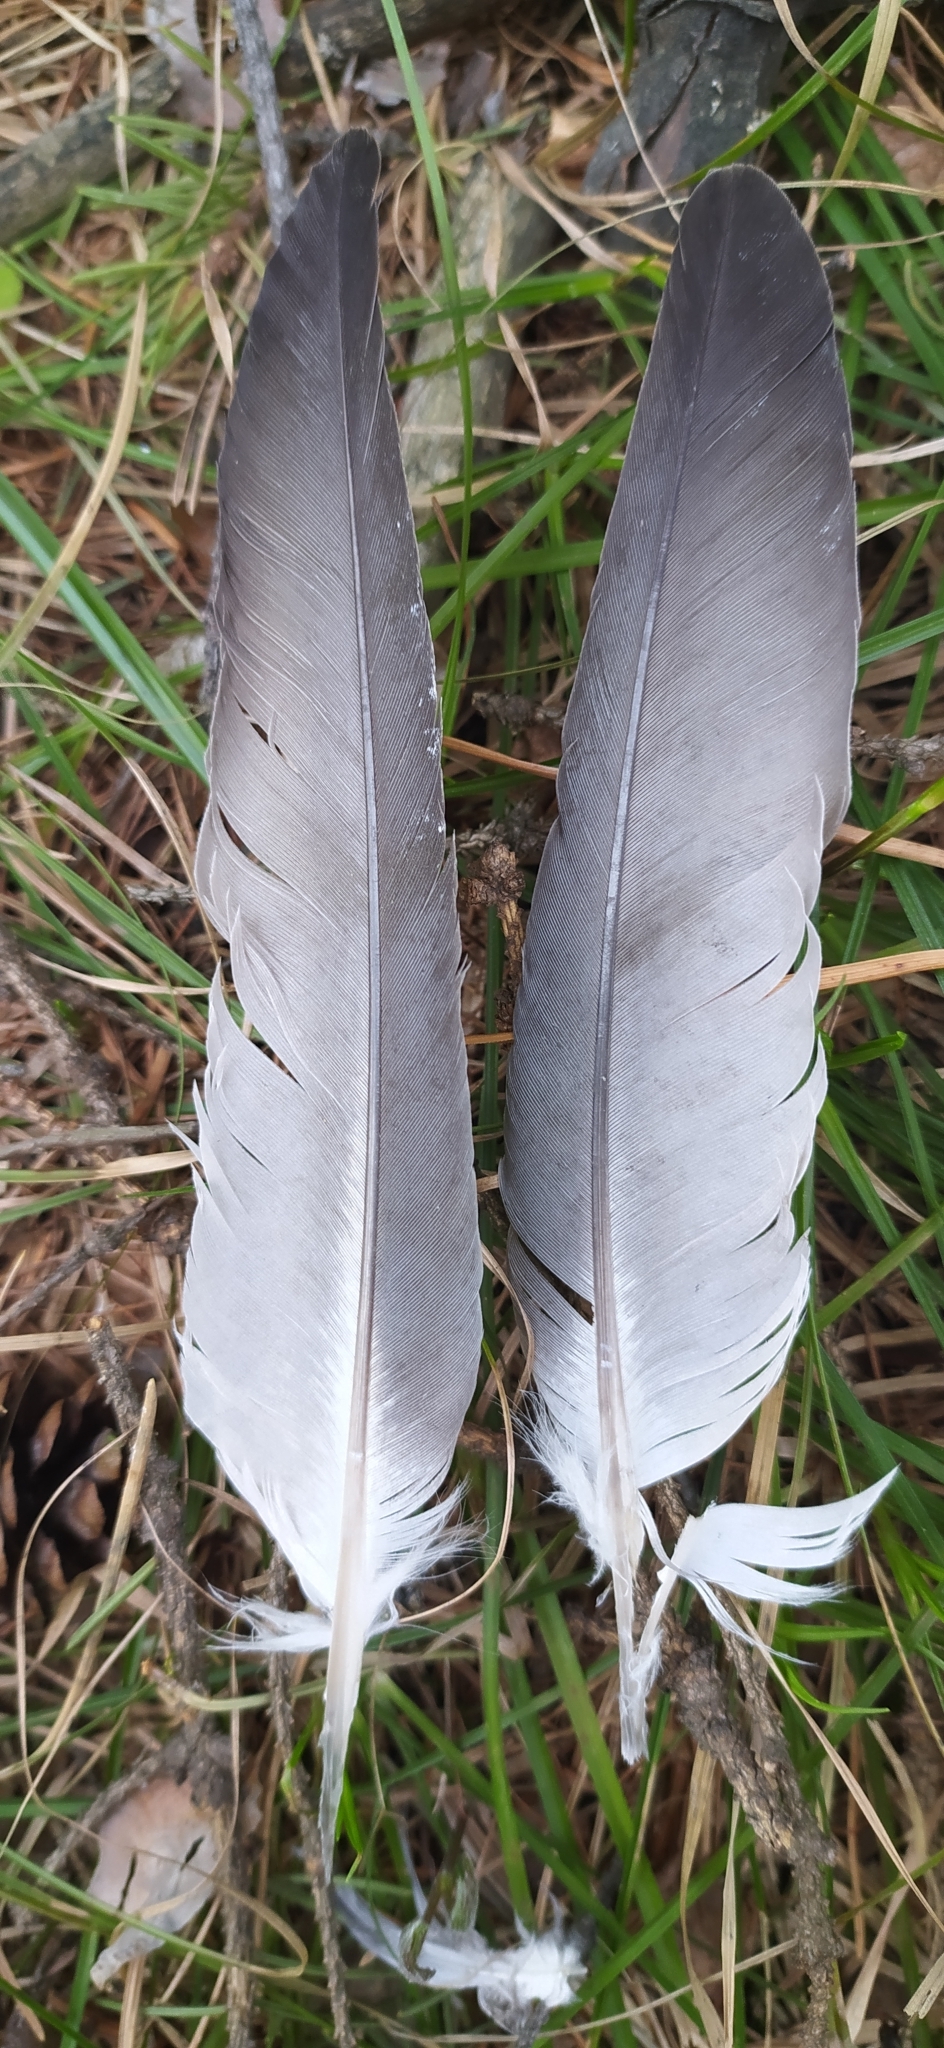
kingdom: Animalia
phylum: Chordata
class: Aves
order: Columbiformes
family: Columbidae
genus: Columba
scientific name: Columba livia
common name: Rock pigeon
